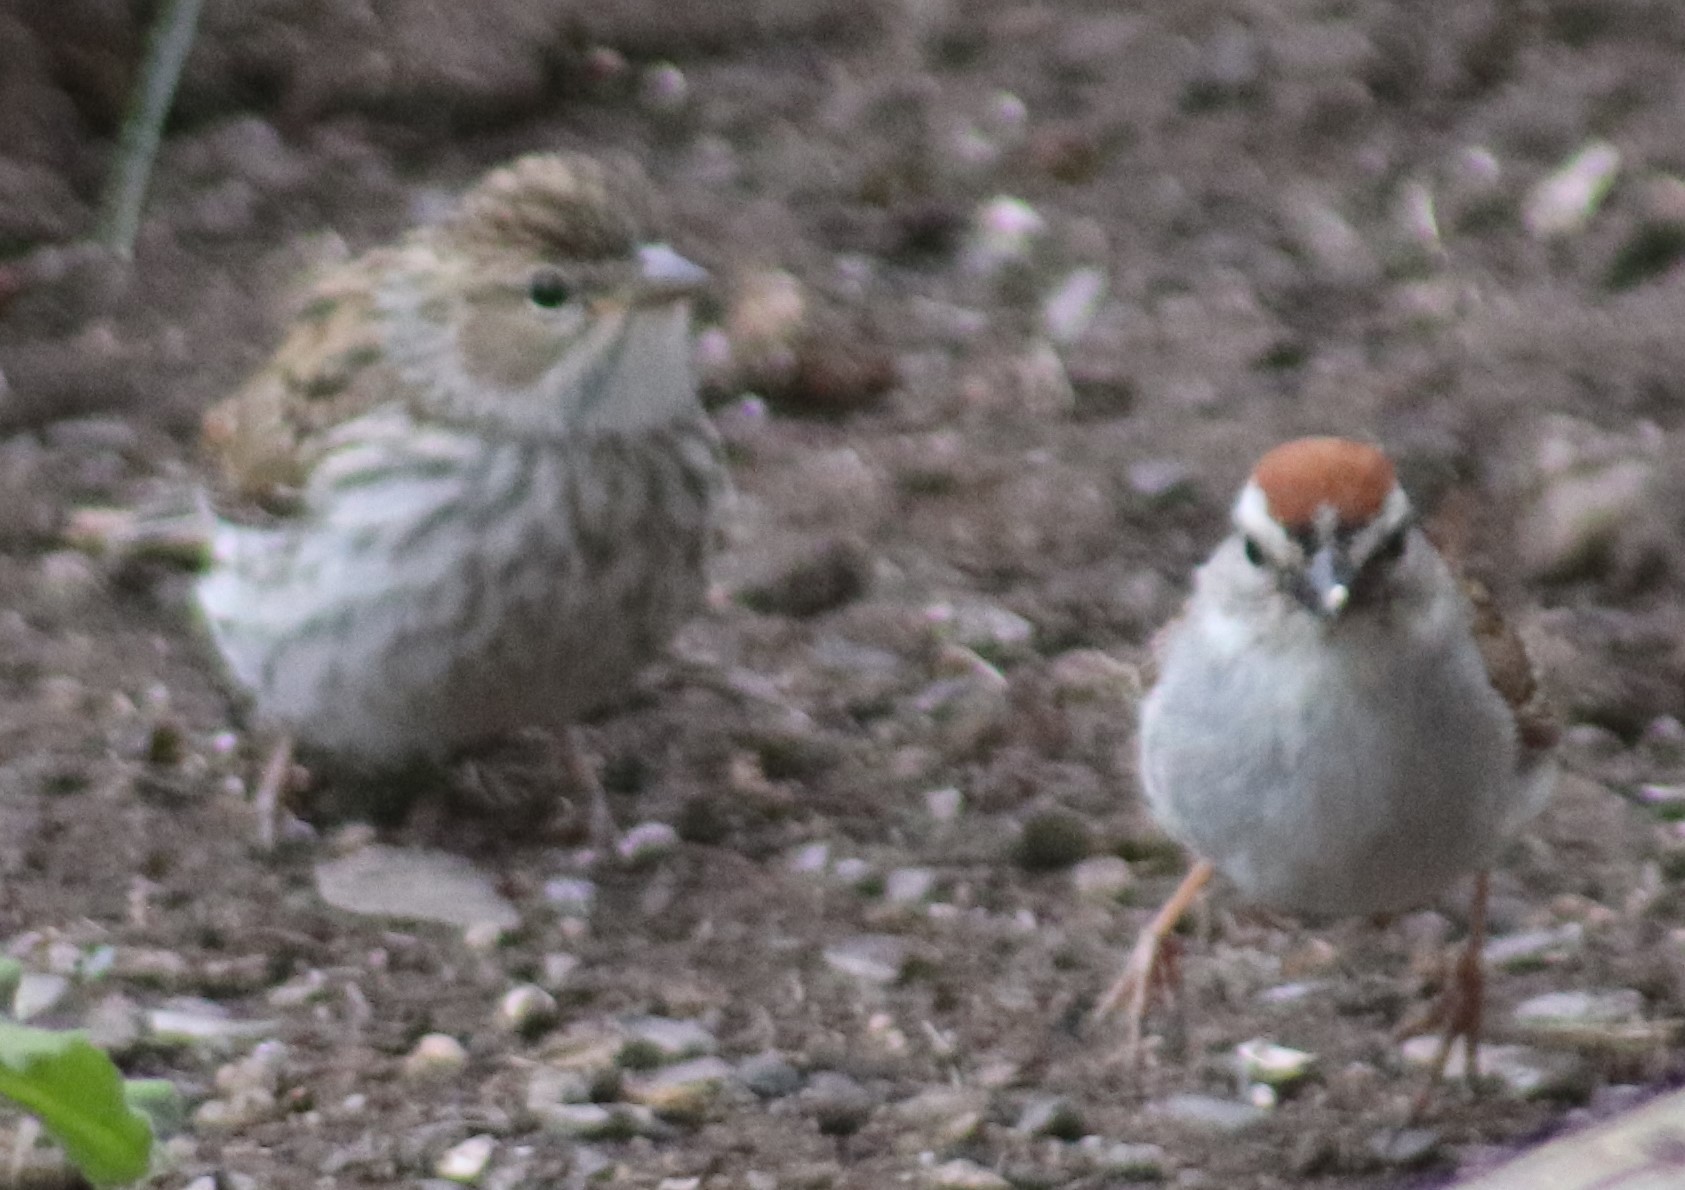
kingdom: Animalia
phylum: Chordata
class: Aves
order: Passeriformes
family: Passerellidae
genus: Spizella
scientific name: Spizella passerina
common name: Chipping sparrow
